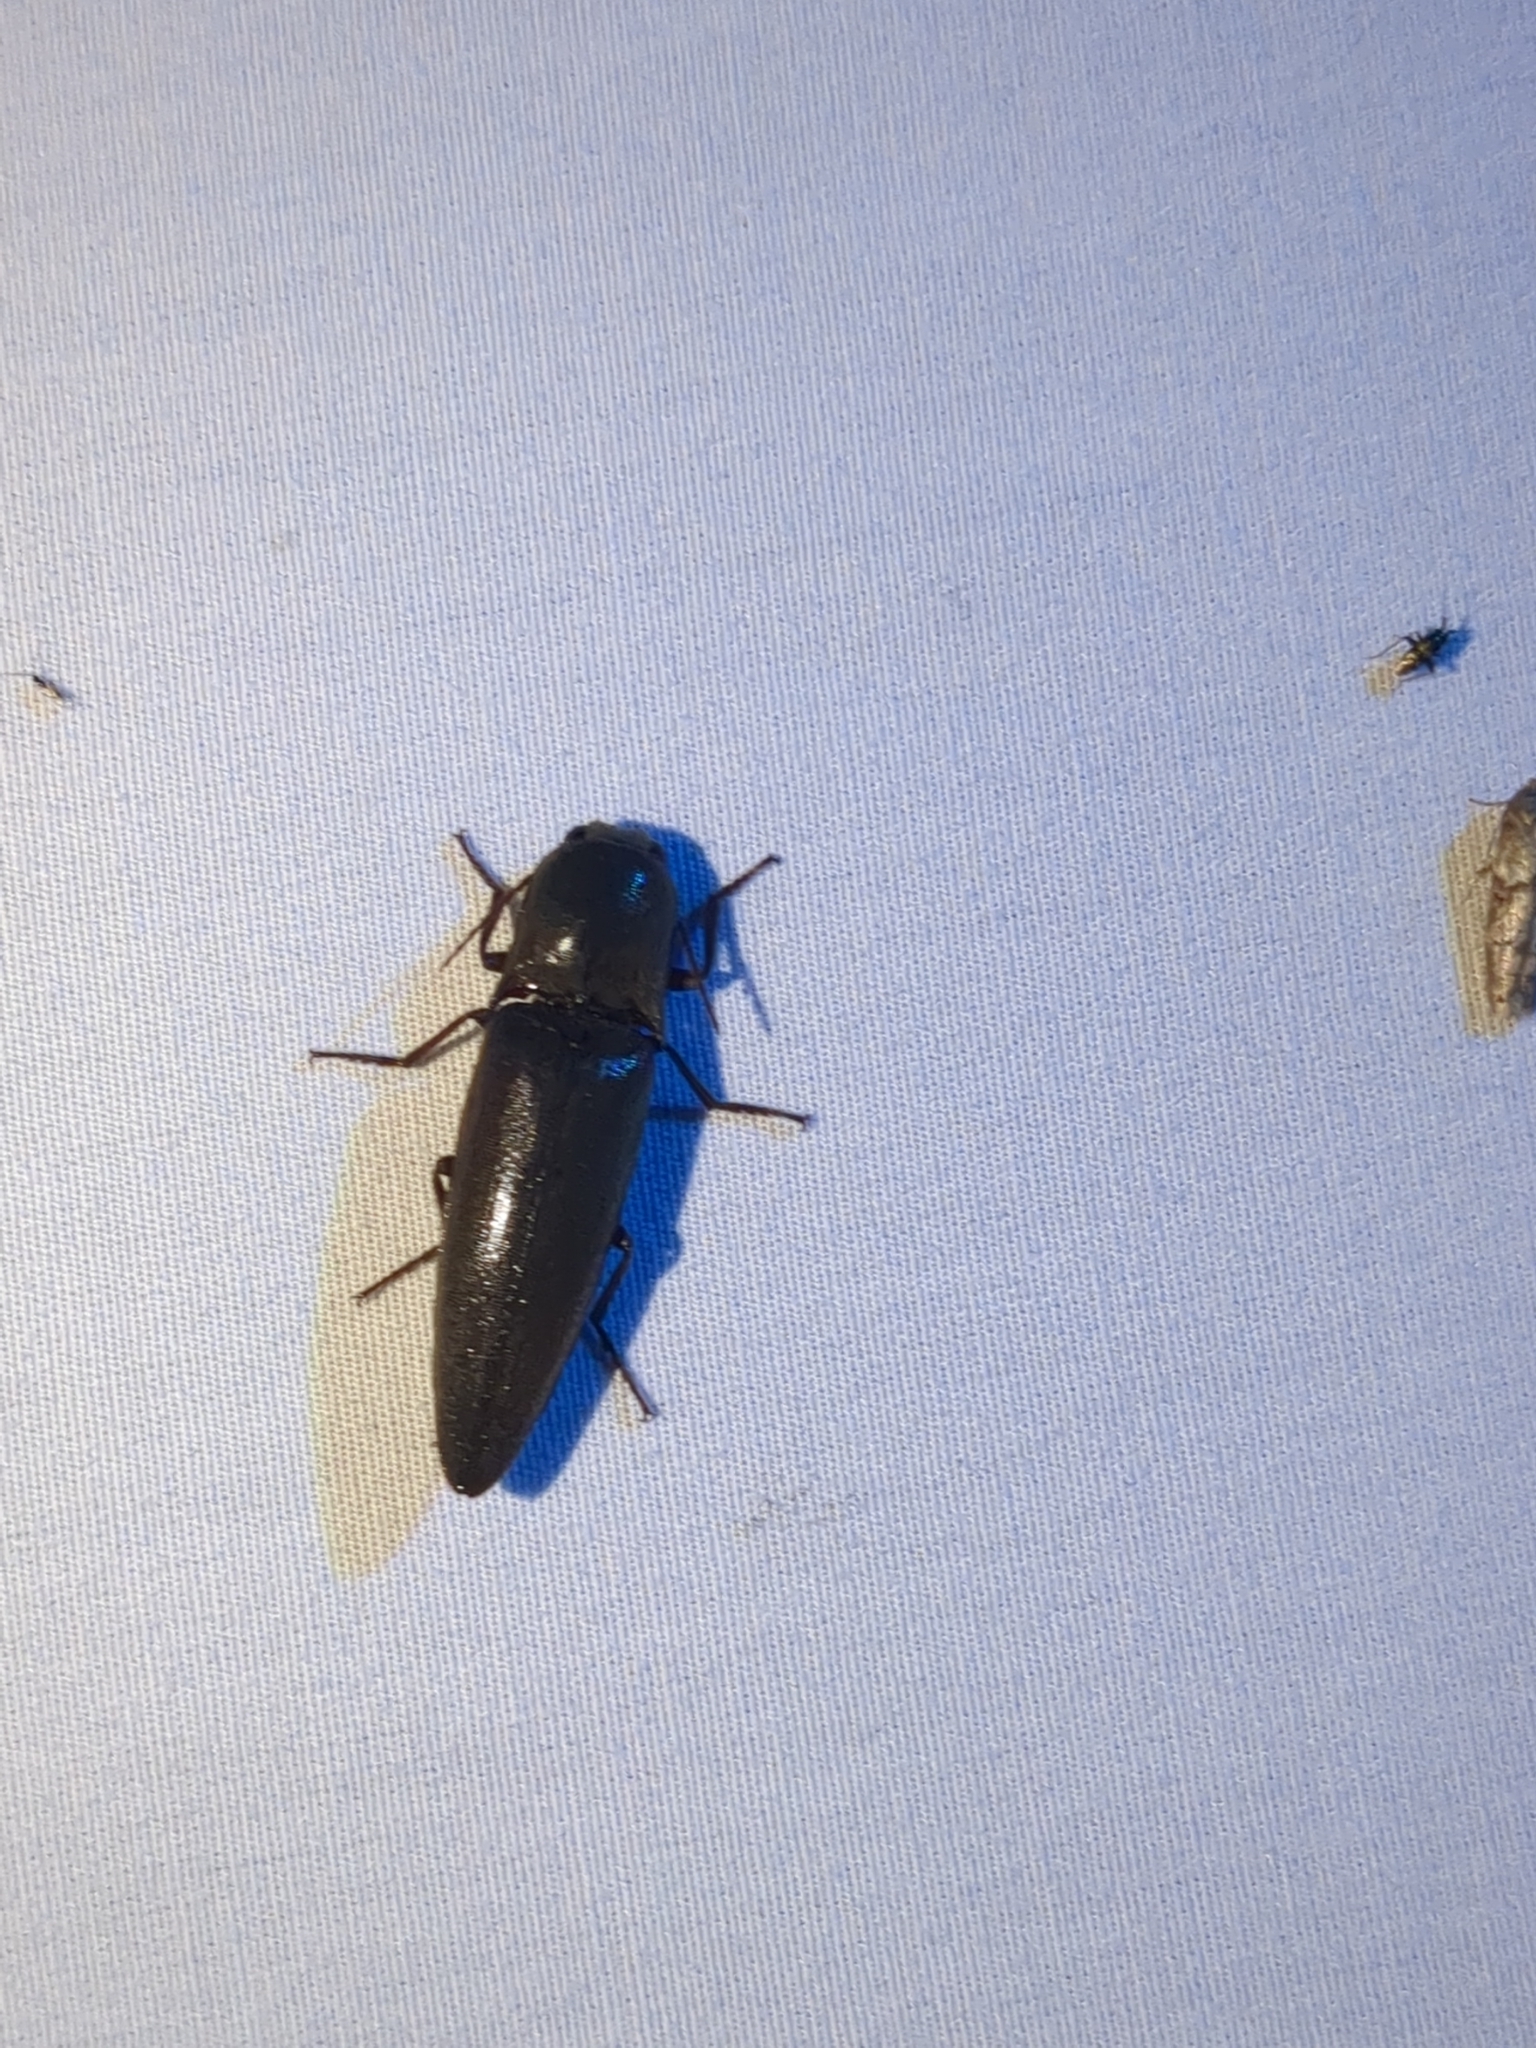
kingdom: Animalia
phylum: Arthropoda
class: Insecta
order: Coleoptera
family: Elateridae
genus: Orthostethus
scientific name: Orthostethus infuscatus
